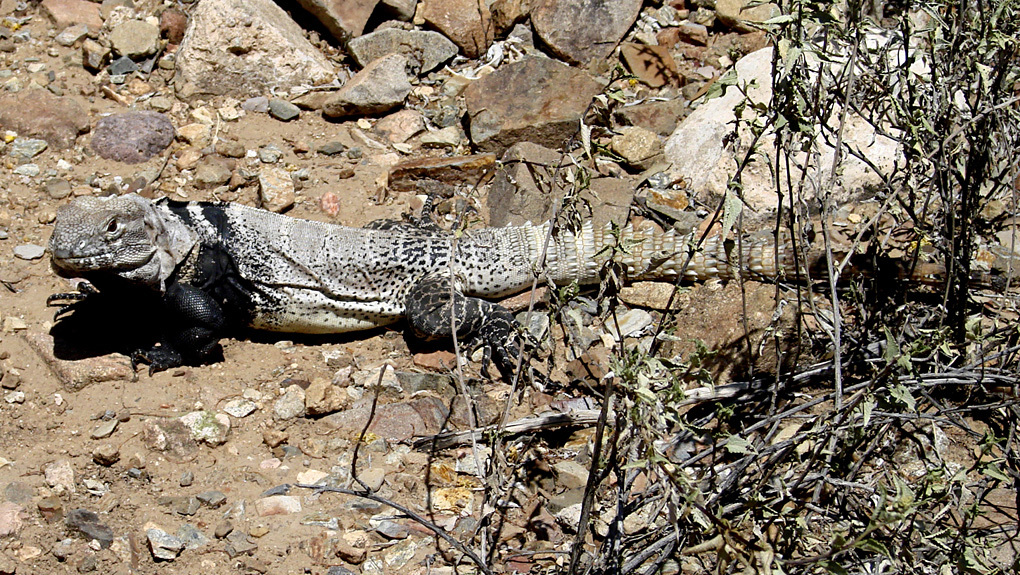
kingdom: Animalia
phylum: Chordata
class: Squamata
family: Iguanidae
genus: Ctenosaura
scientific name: Ctenosaura conspicuosa
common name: San esteban spinytail iguana
